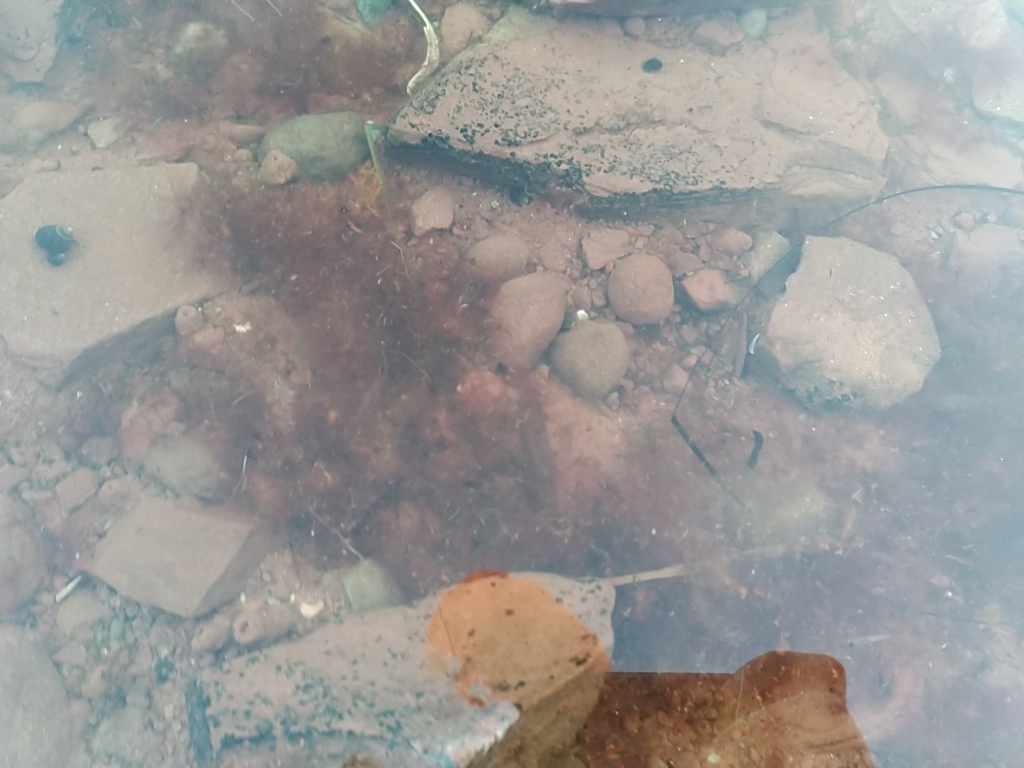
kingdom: Plantae
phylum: Rhodophyta
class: Florideophyceae
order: Gigartinales
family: Gigartinaceae
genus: Chondrus
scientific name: Chondrus crispus
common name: Carrageen
